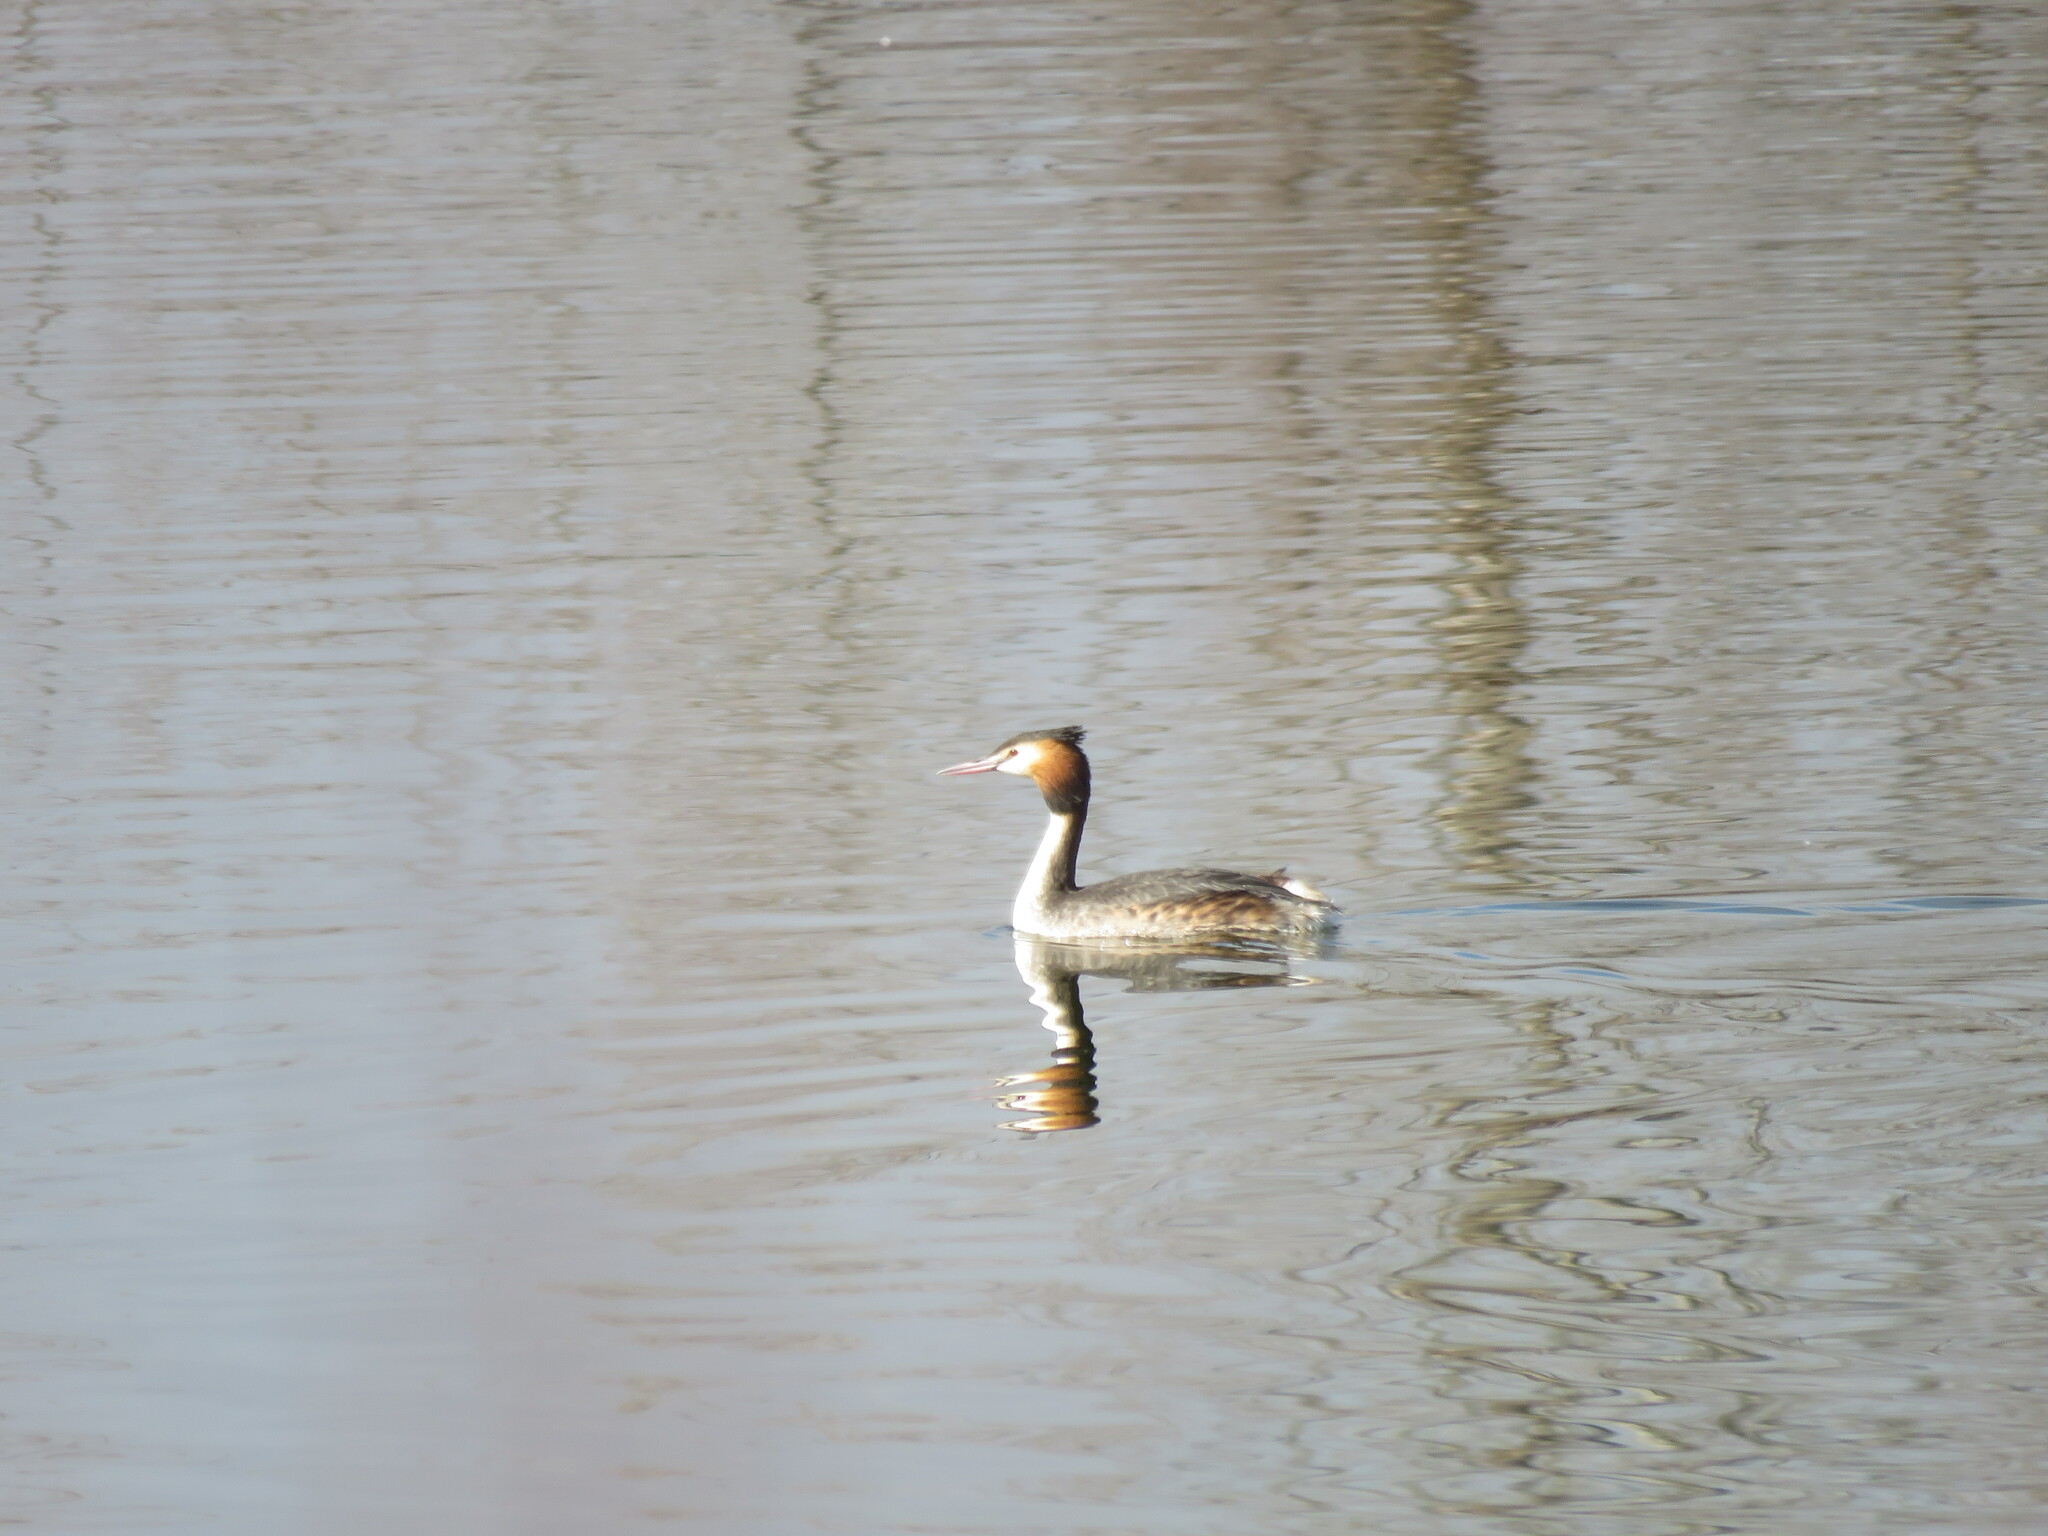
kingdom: Animalia
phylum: Chordata
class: Aves
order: Podicipediformes
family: Podicipedidae
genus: Podiceps
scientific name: Podiceps cristatus
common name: Great crested grebe
